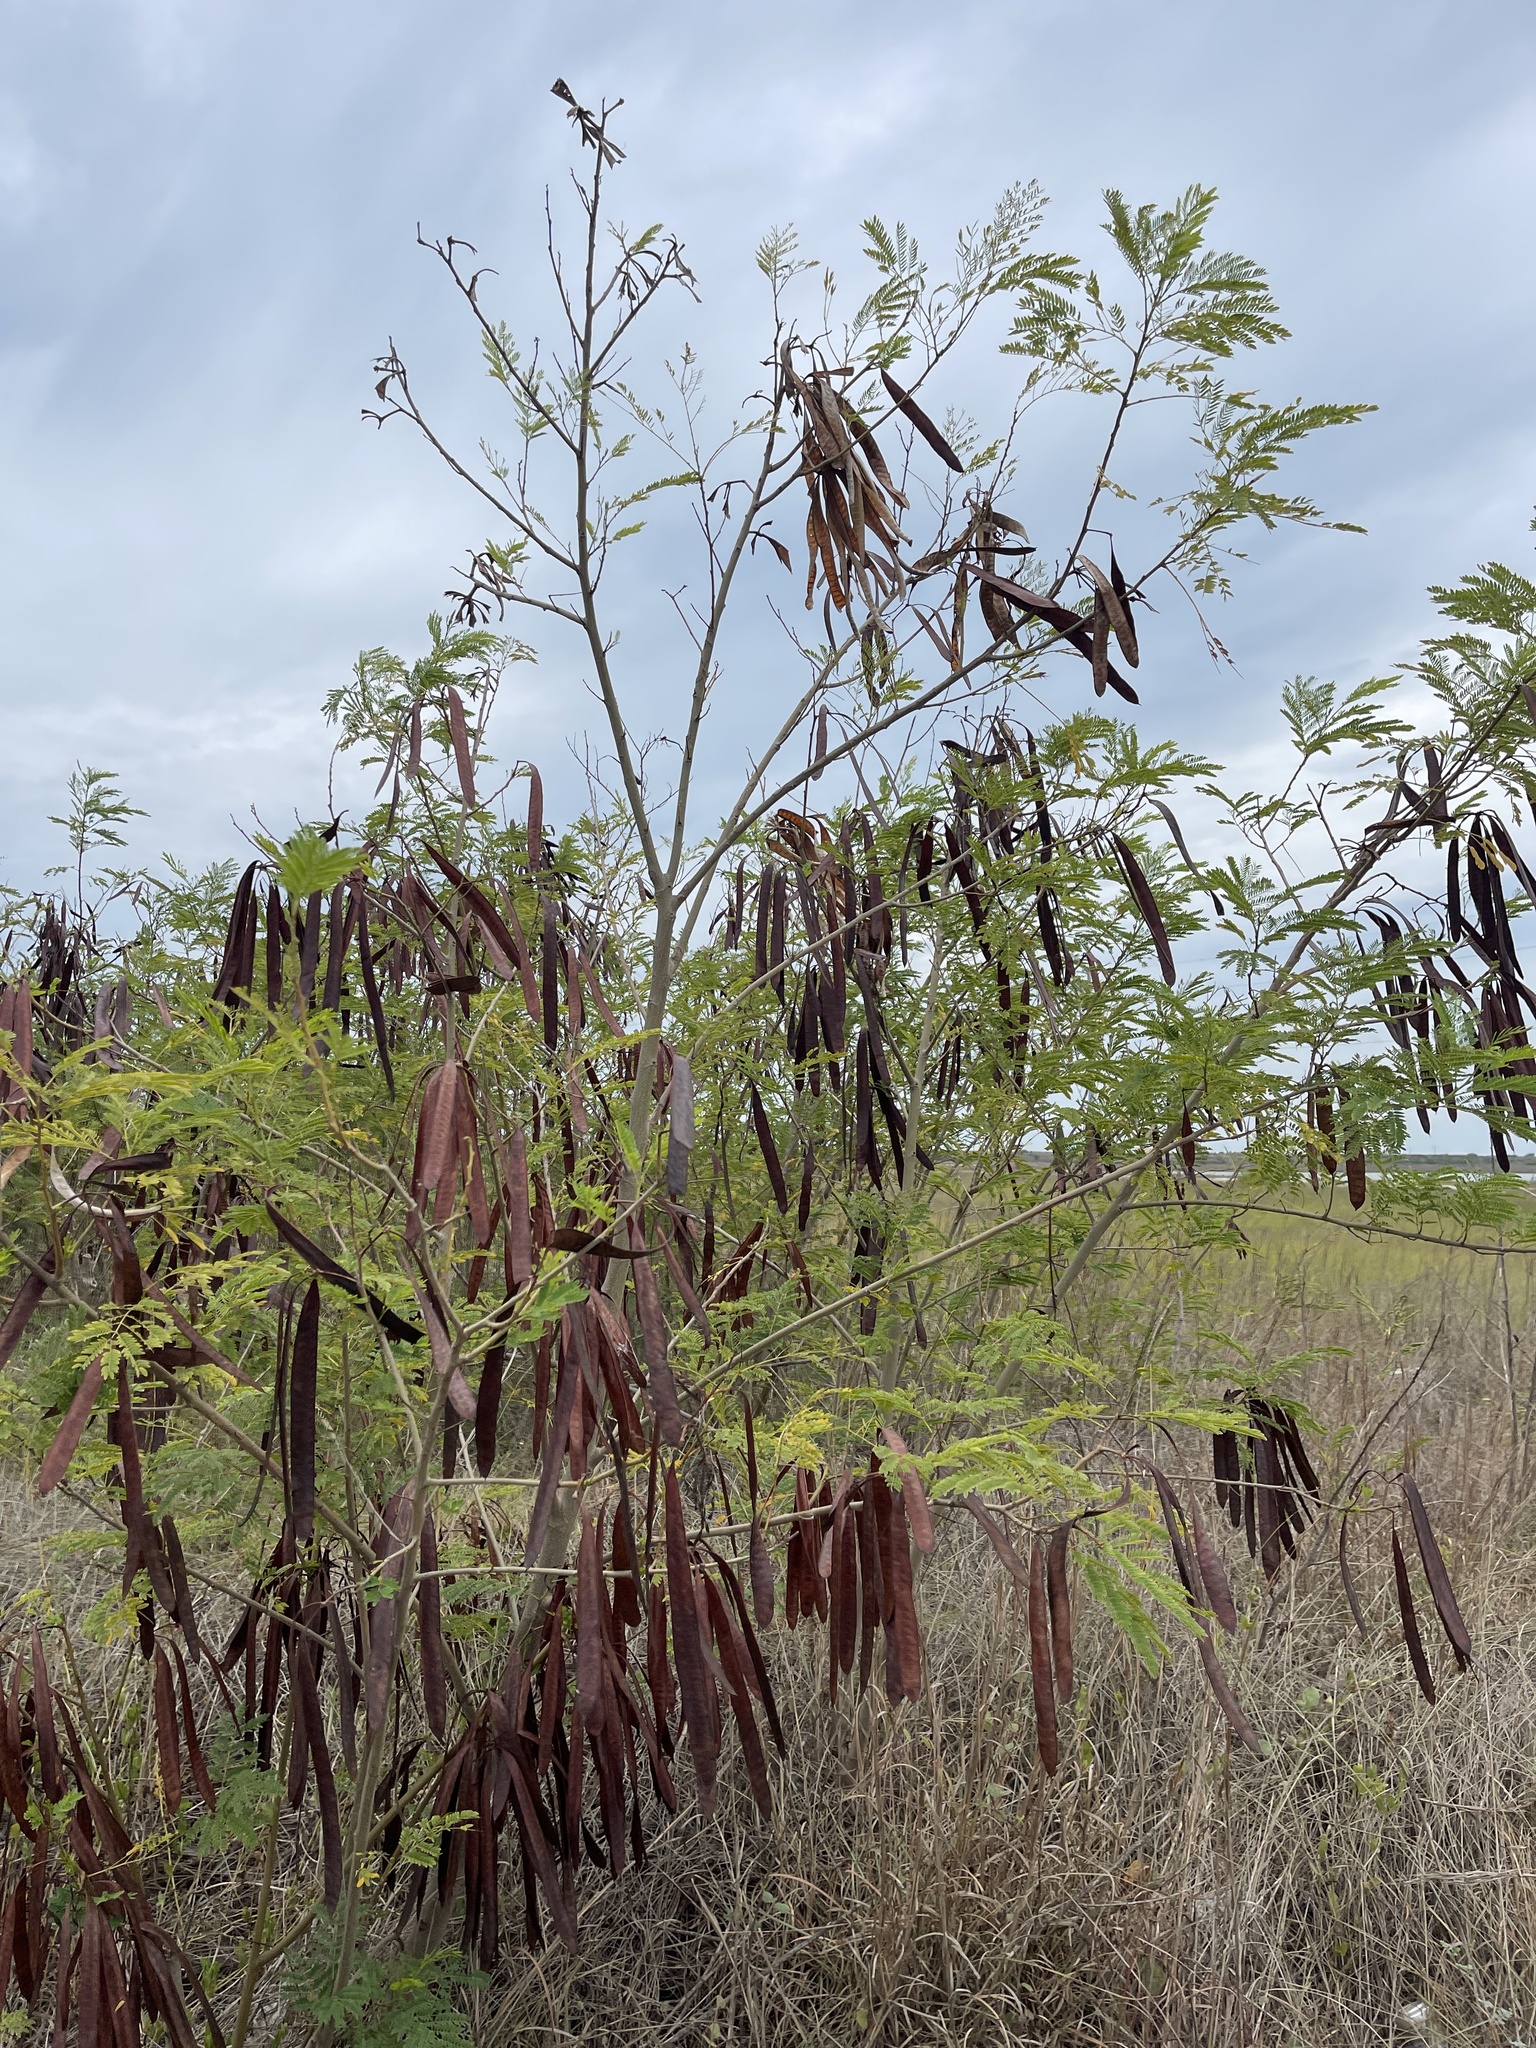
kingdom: Plantae
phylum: Tracheophyta
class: Magnoliopsida
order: Fabales
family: Fabaceae
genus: Leucaena
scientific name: Leucaena leucocephala
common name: White leadtree
